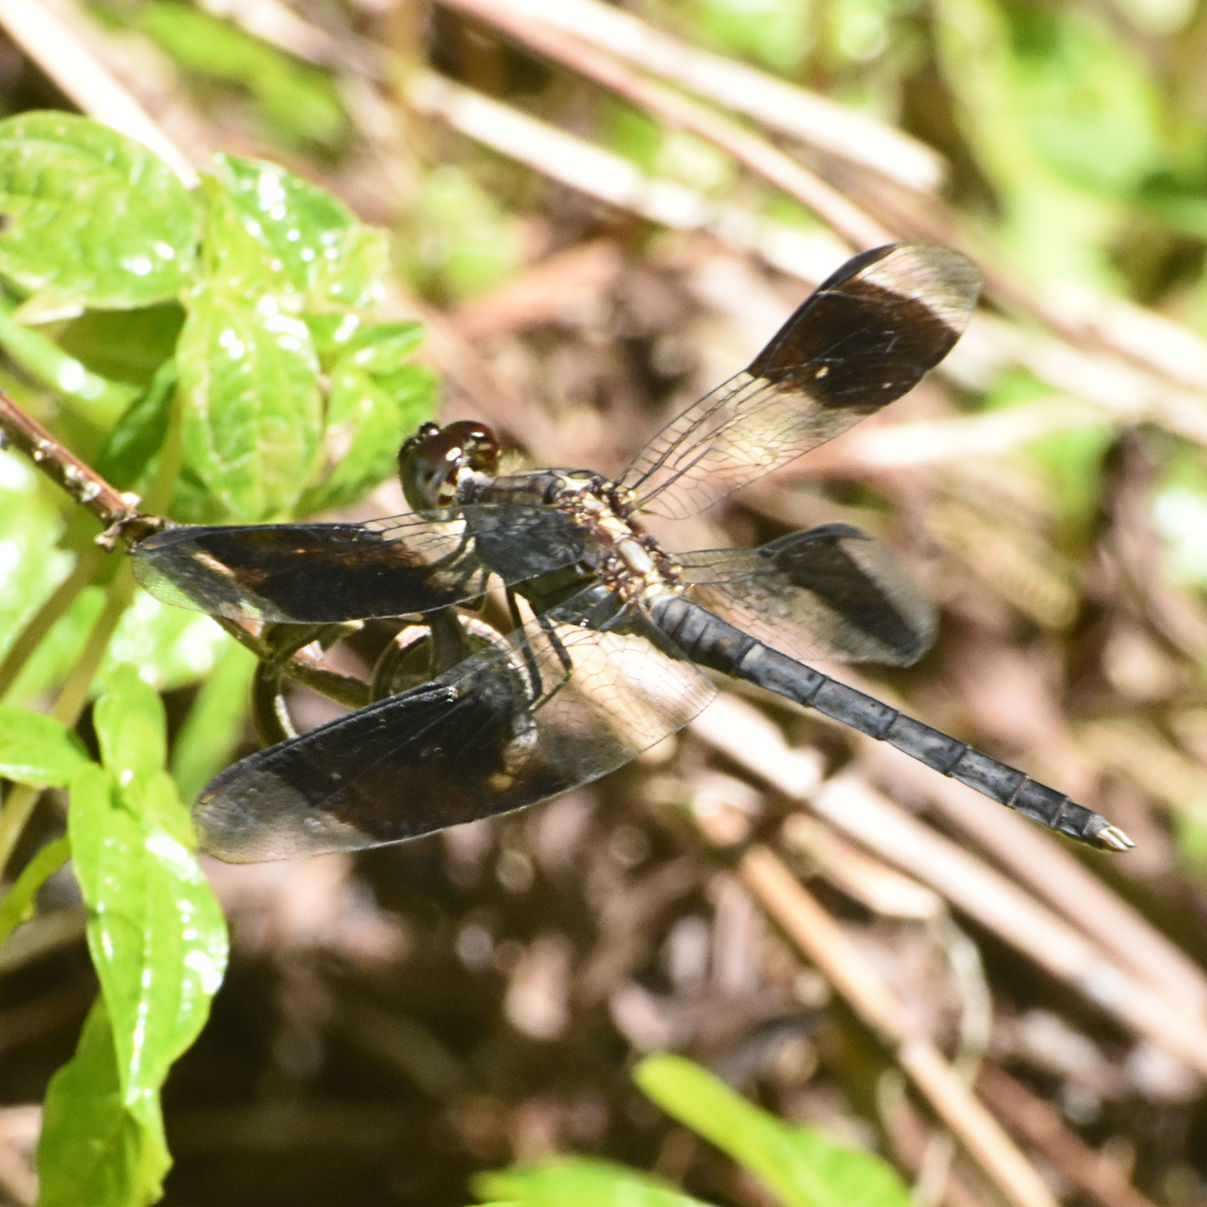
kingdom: Animalia
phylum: Arthropoda
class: Insecta
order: Odonata
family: Libellulidae
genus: Erythrodiplax
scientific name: Erythrodiplax umbrata
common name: Band-winged dragonlet
